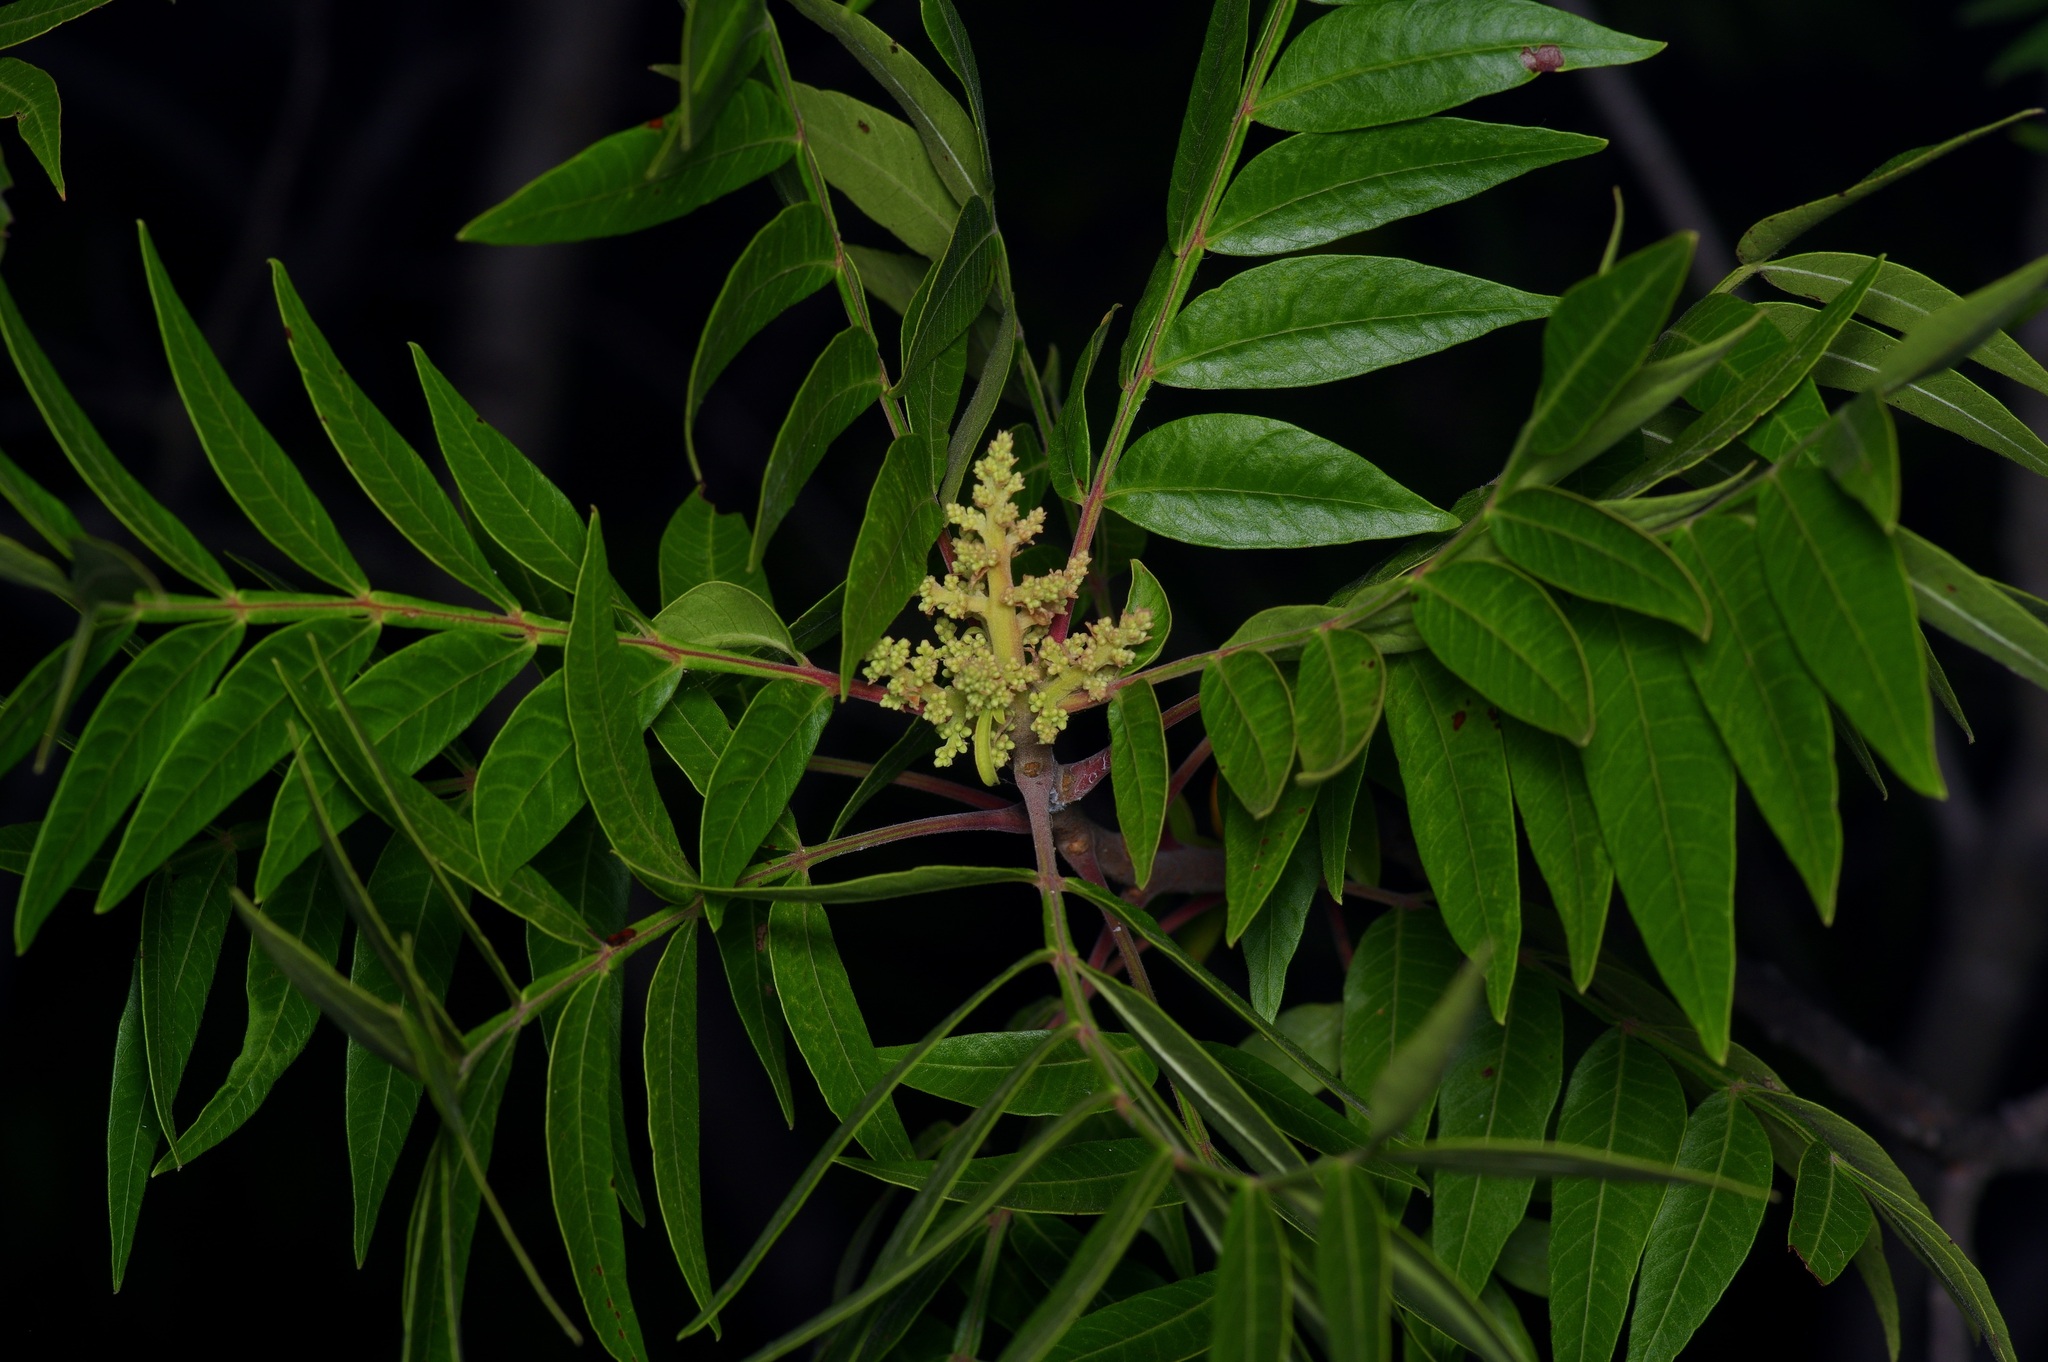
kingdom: Plantae
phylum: Tracheophyta
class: Magnoliopsida
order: Sapindales
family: Anacardiaceae
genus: Rhus
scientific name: Rhus lanceolata
